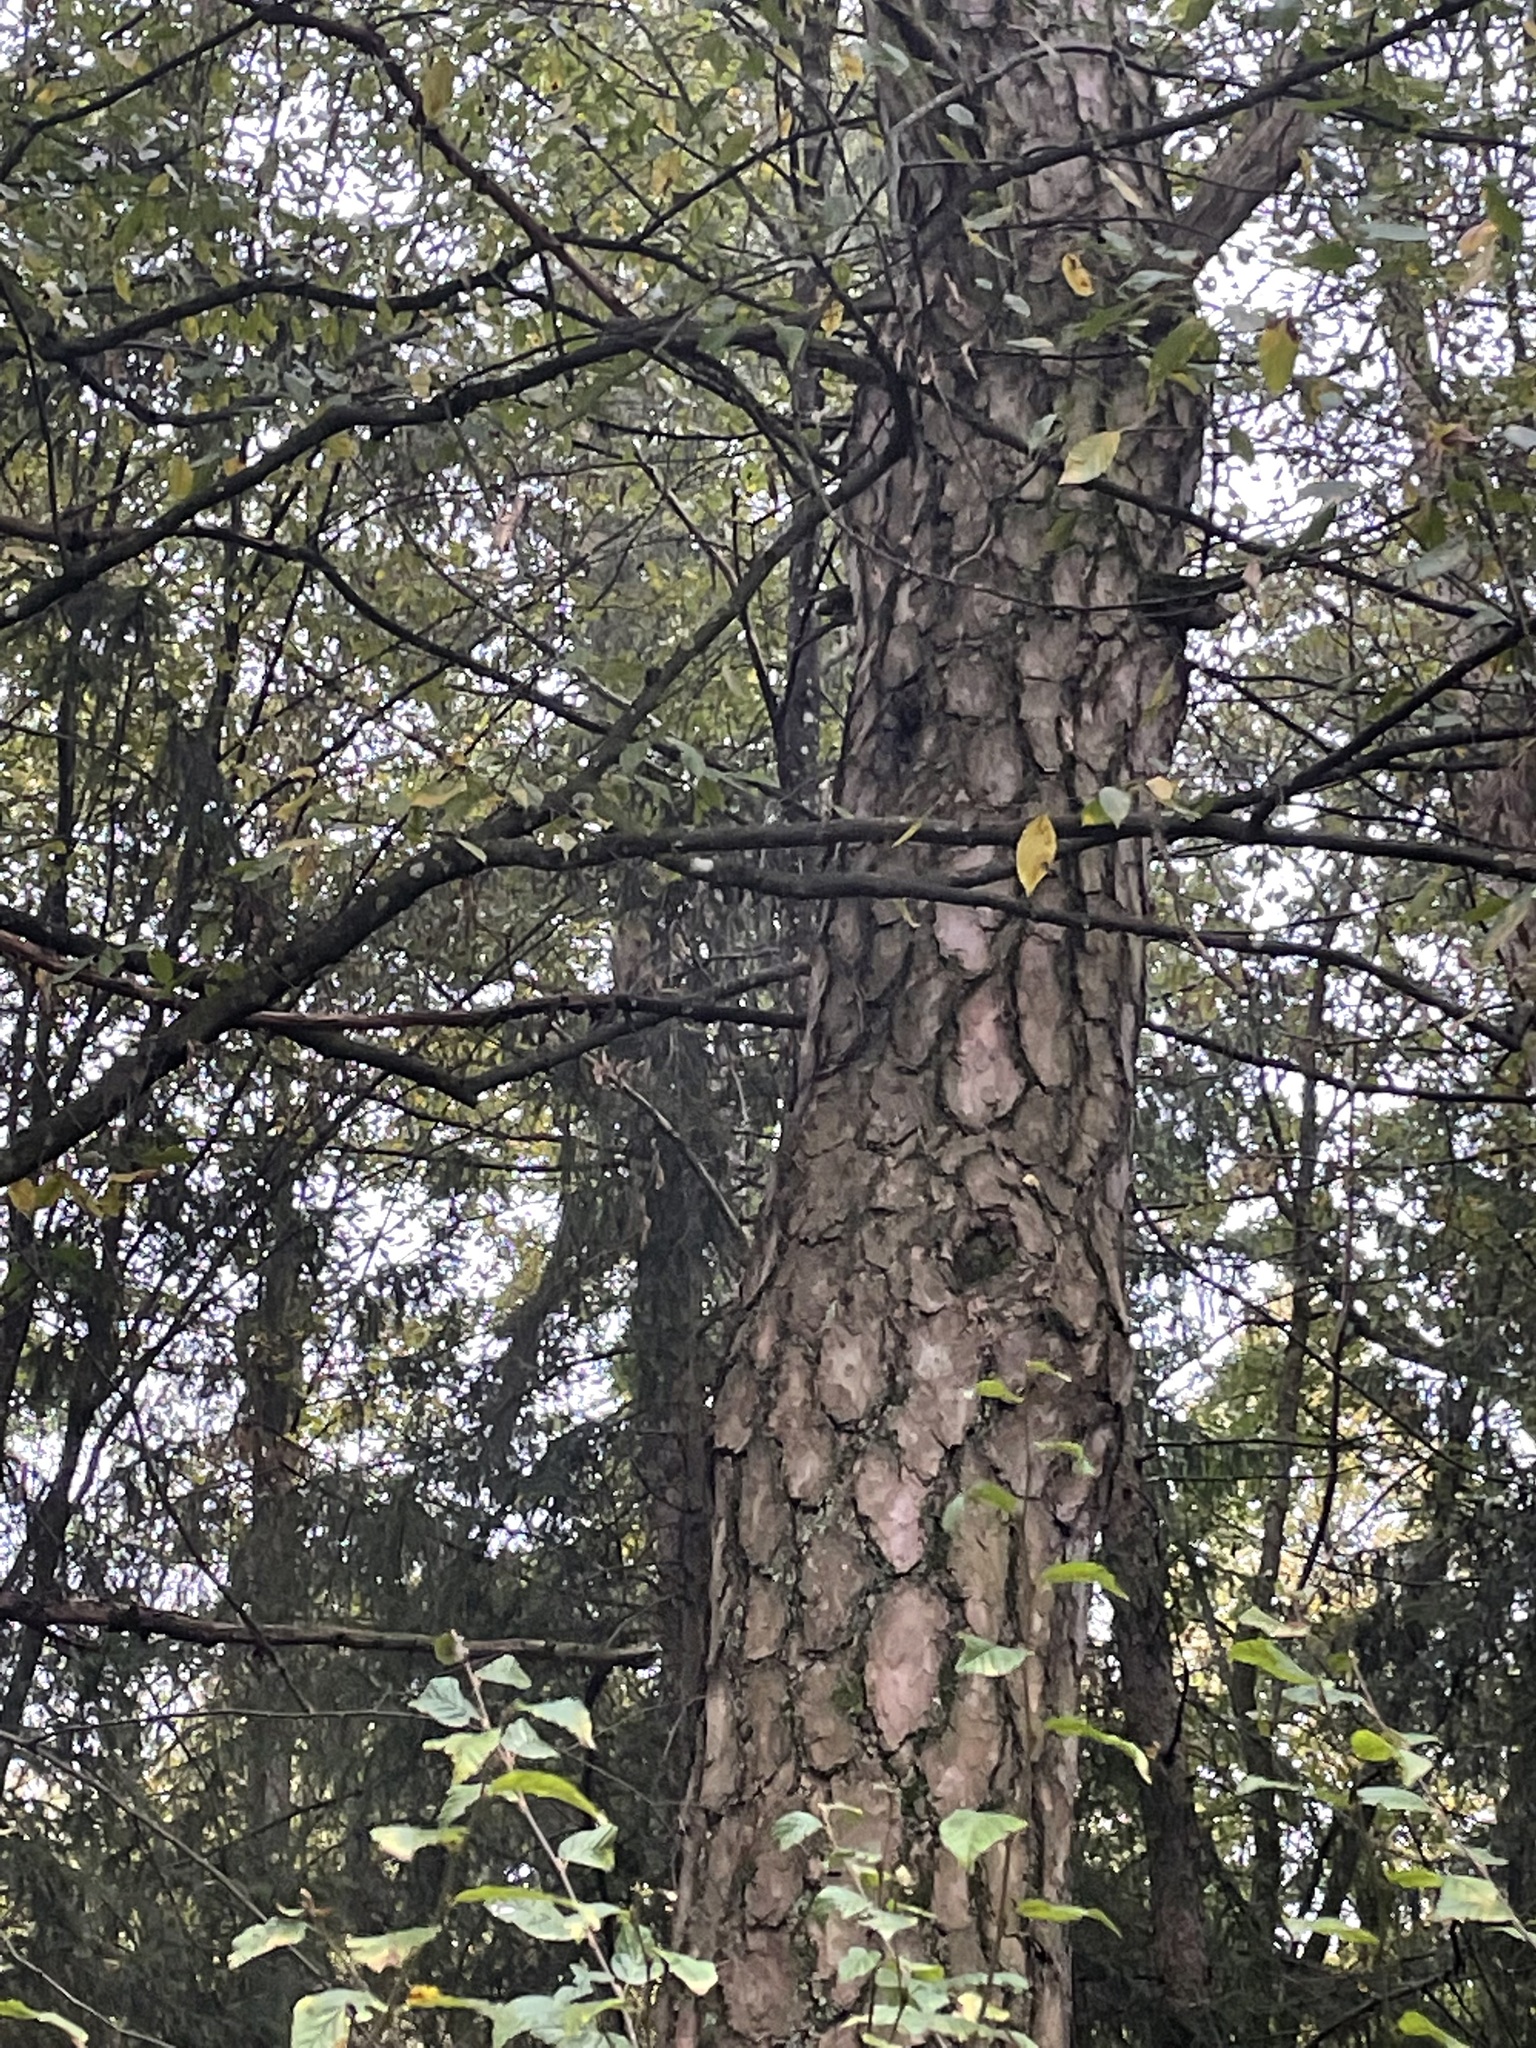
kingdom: Plantae
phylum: Tracheophyta
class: Pinopsida
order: Pinales
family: Pinaceae
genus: Pinus
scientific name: Pinus sylvestris
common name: Scots pine
